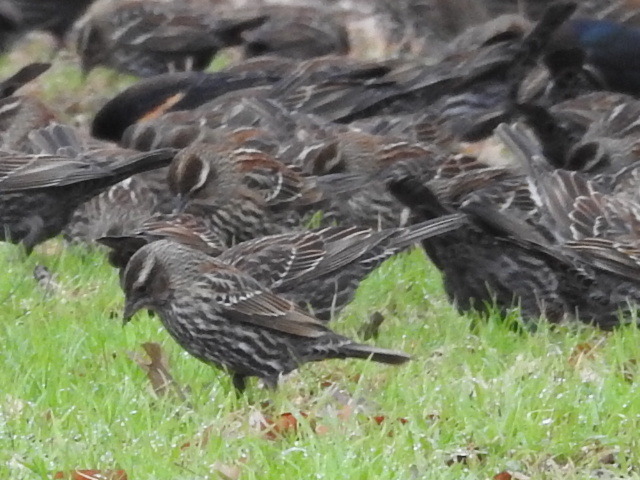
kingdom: Animalia
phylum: Chordata
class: Aves
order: Passeriformes
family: Icteridae
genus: Agelaius
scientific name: Agelaius phoeniceus
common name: Red-winged blackbird
